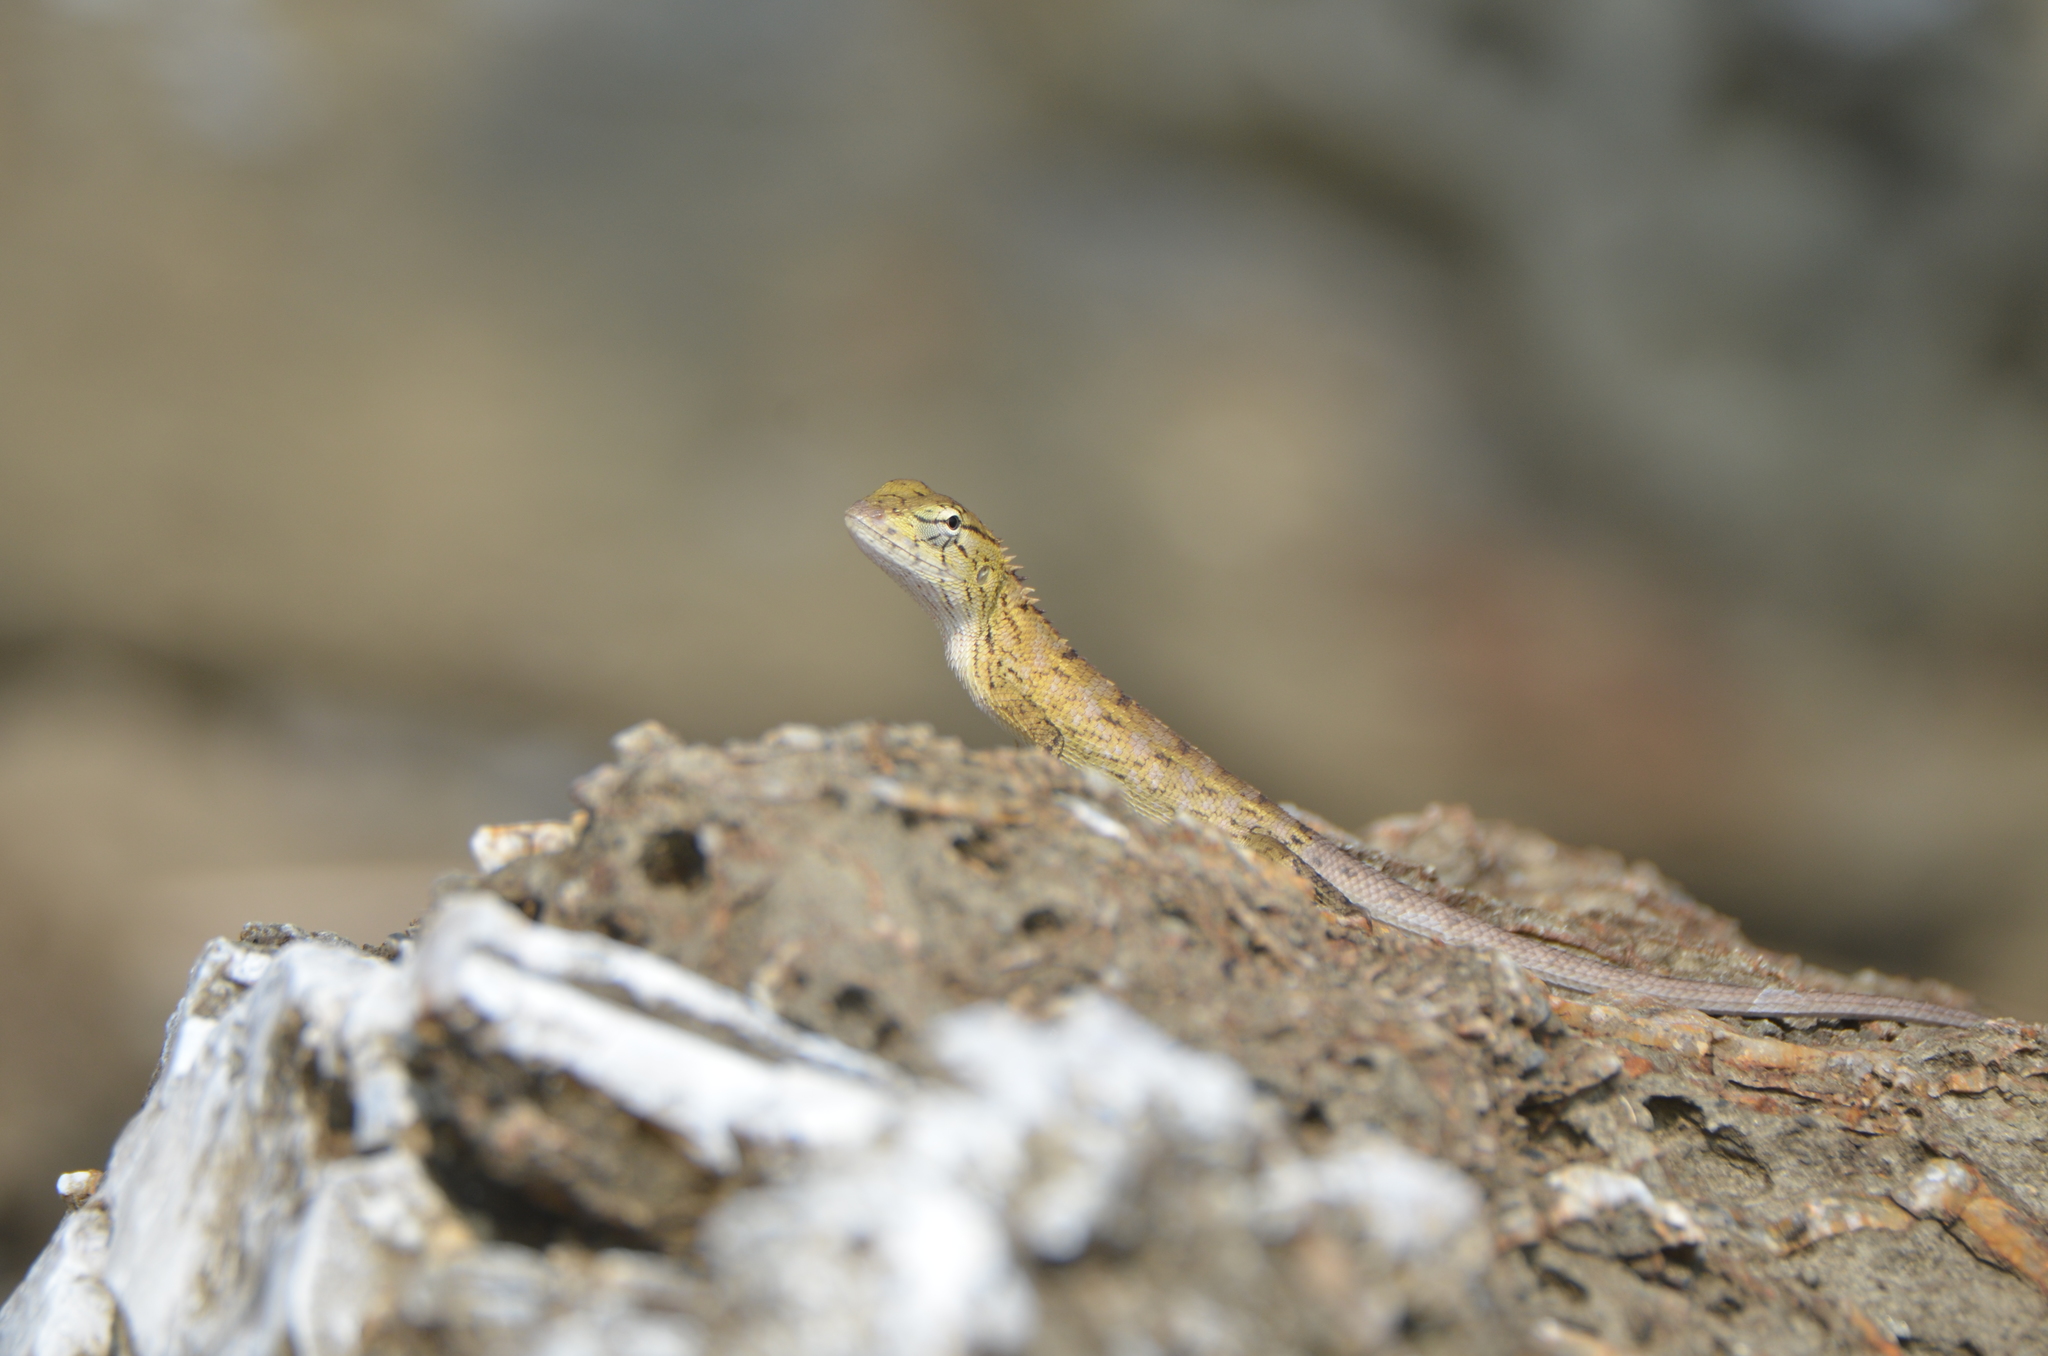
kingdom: Animalia
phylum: Chordata
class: Squamata
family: Agamidae
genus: Calotes
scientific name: Calotes versicolor
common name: Oriental garden lizard
